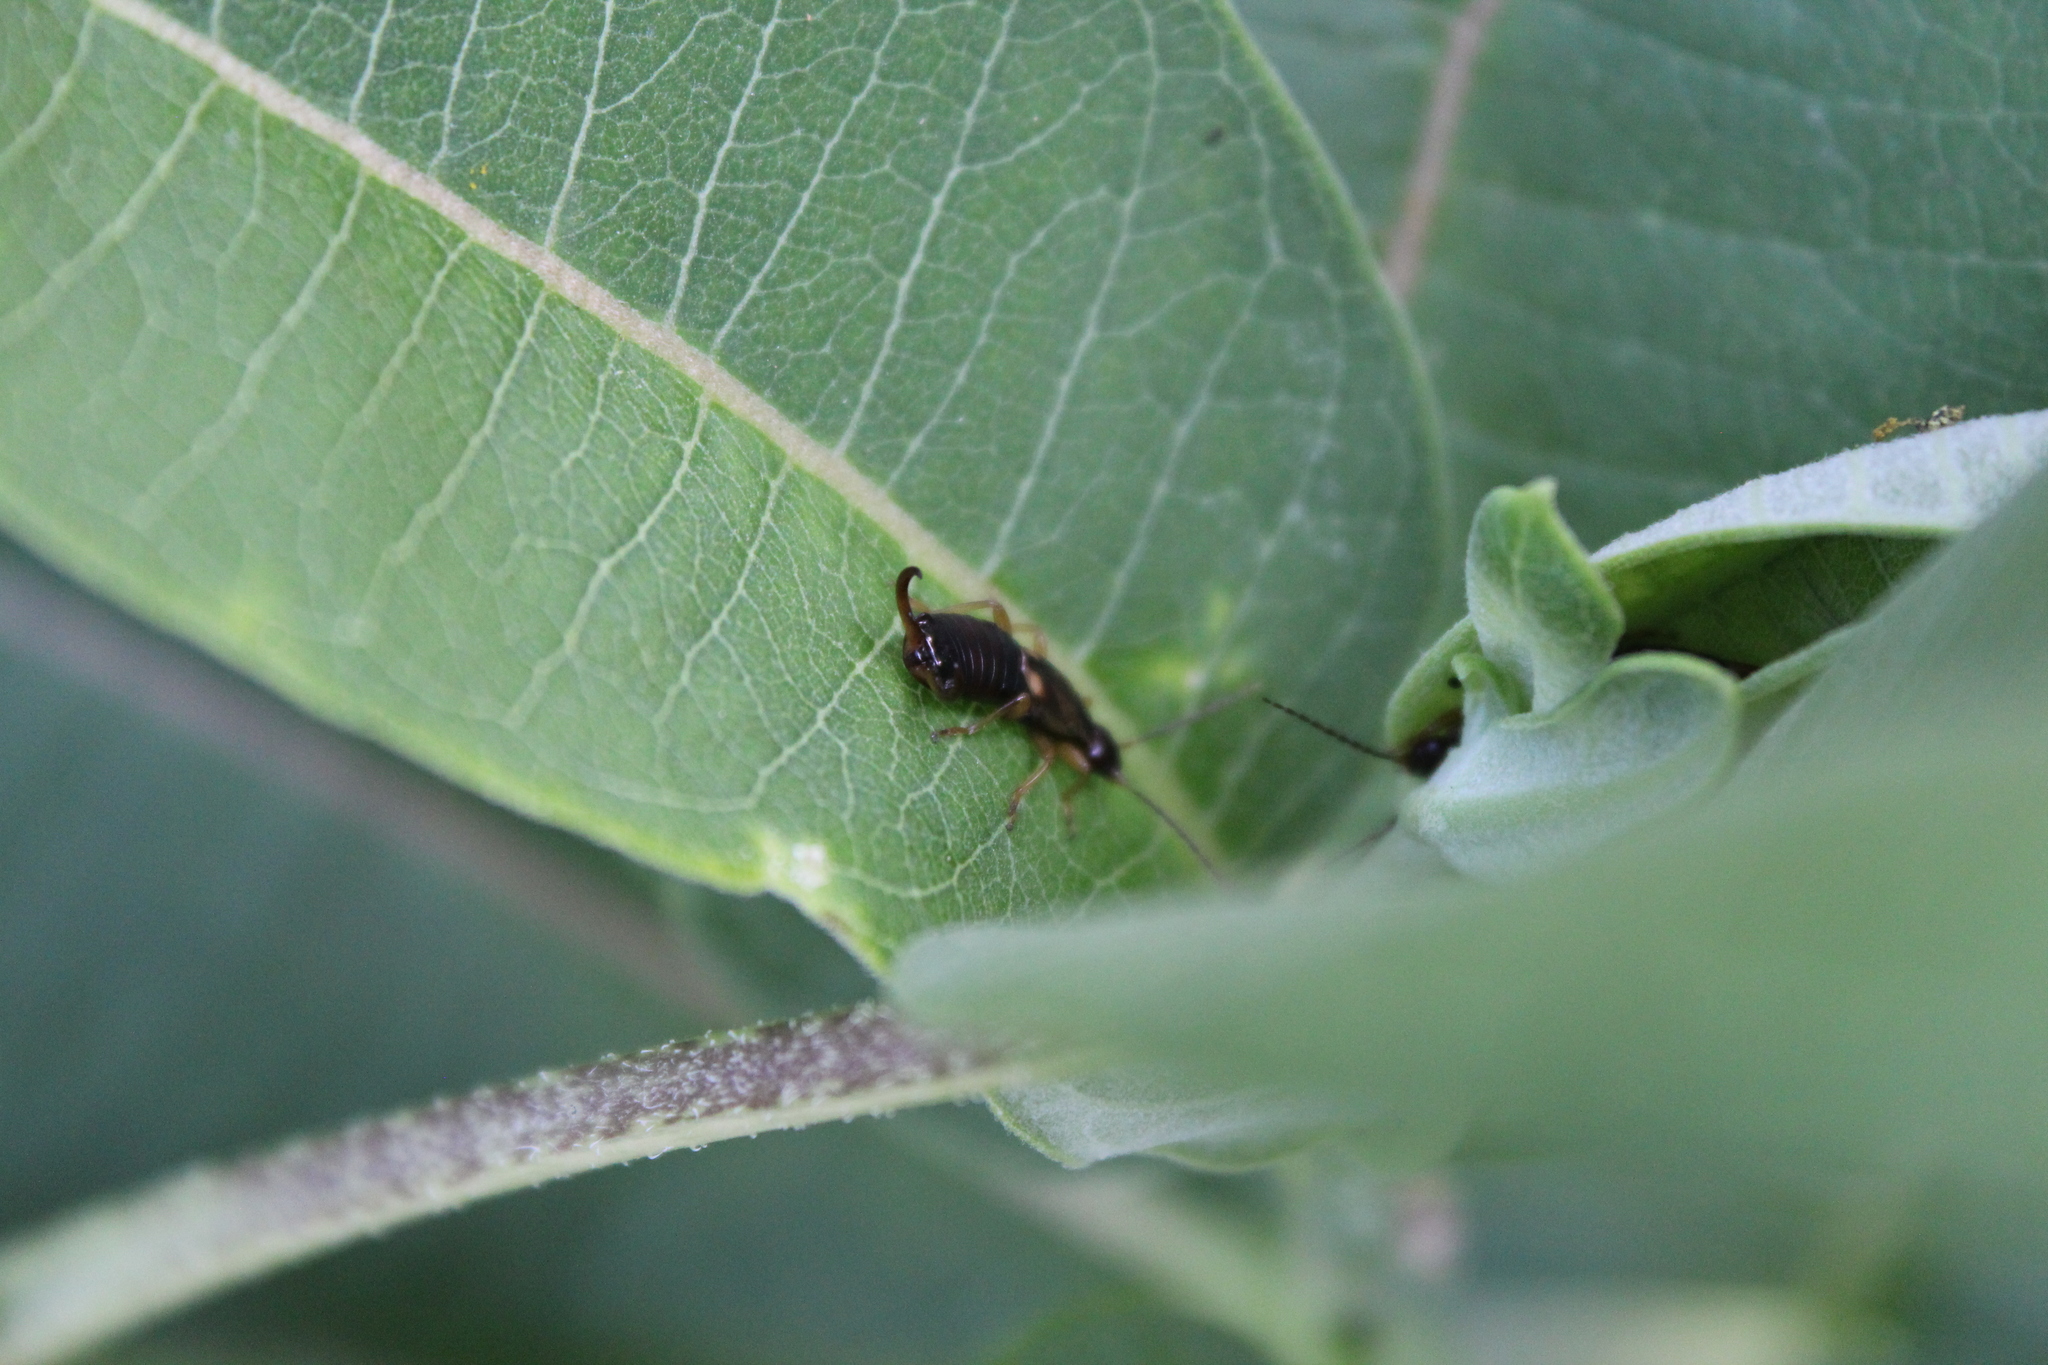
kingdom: Animalia
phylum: Arthropoda
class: Insecta
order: Dermaptera
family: Forficulidae
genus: Forficula
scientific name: Forficula
